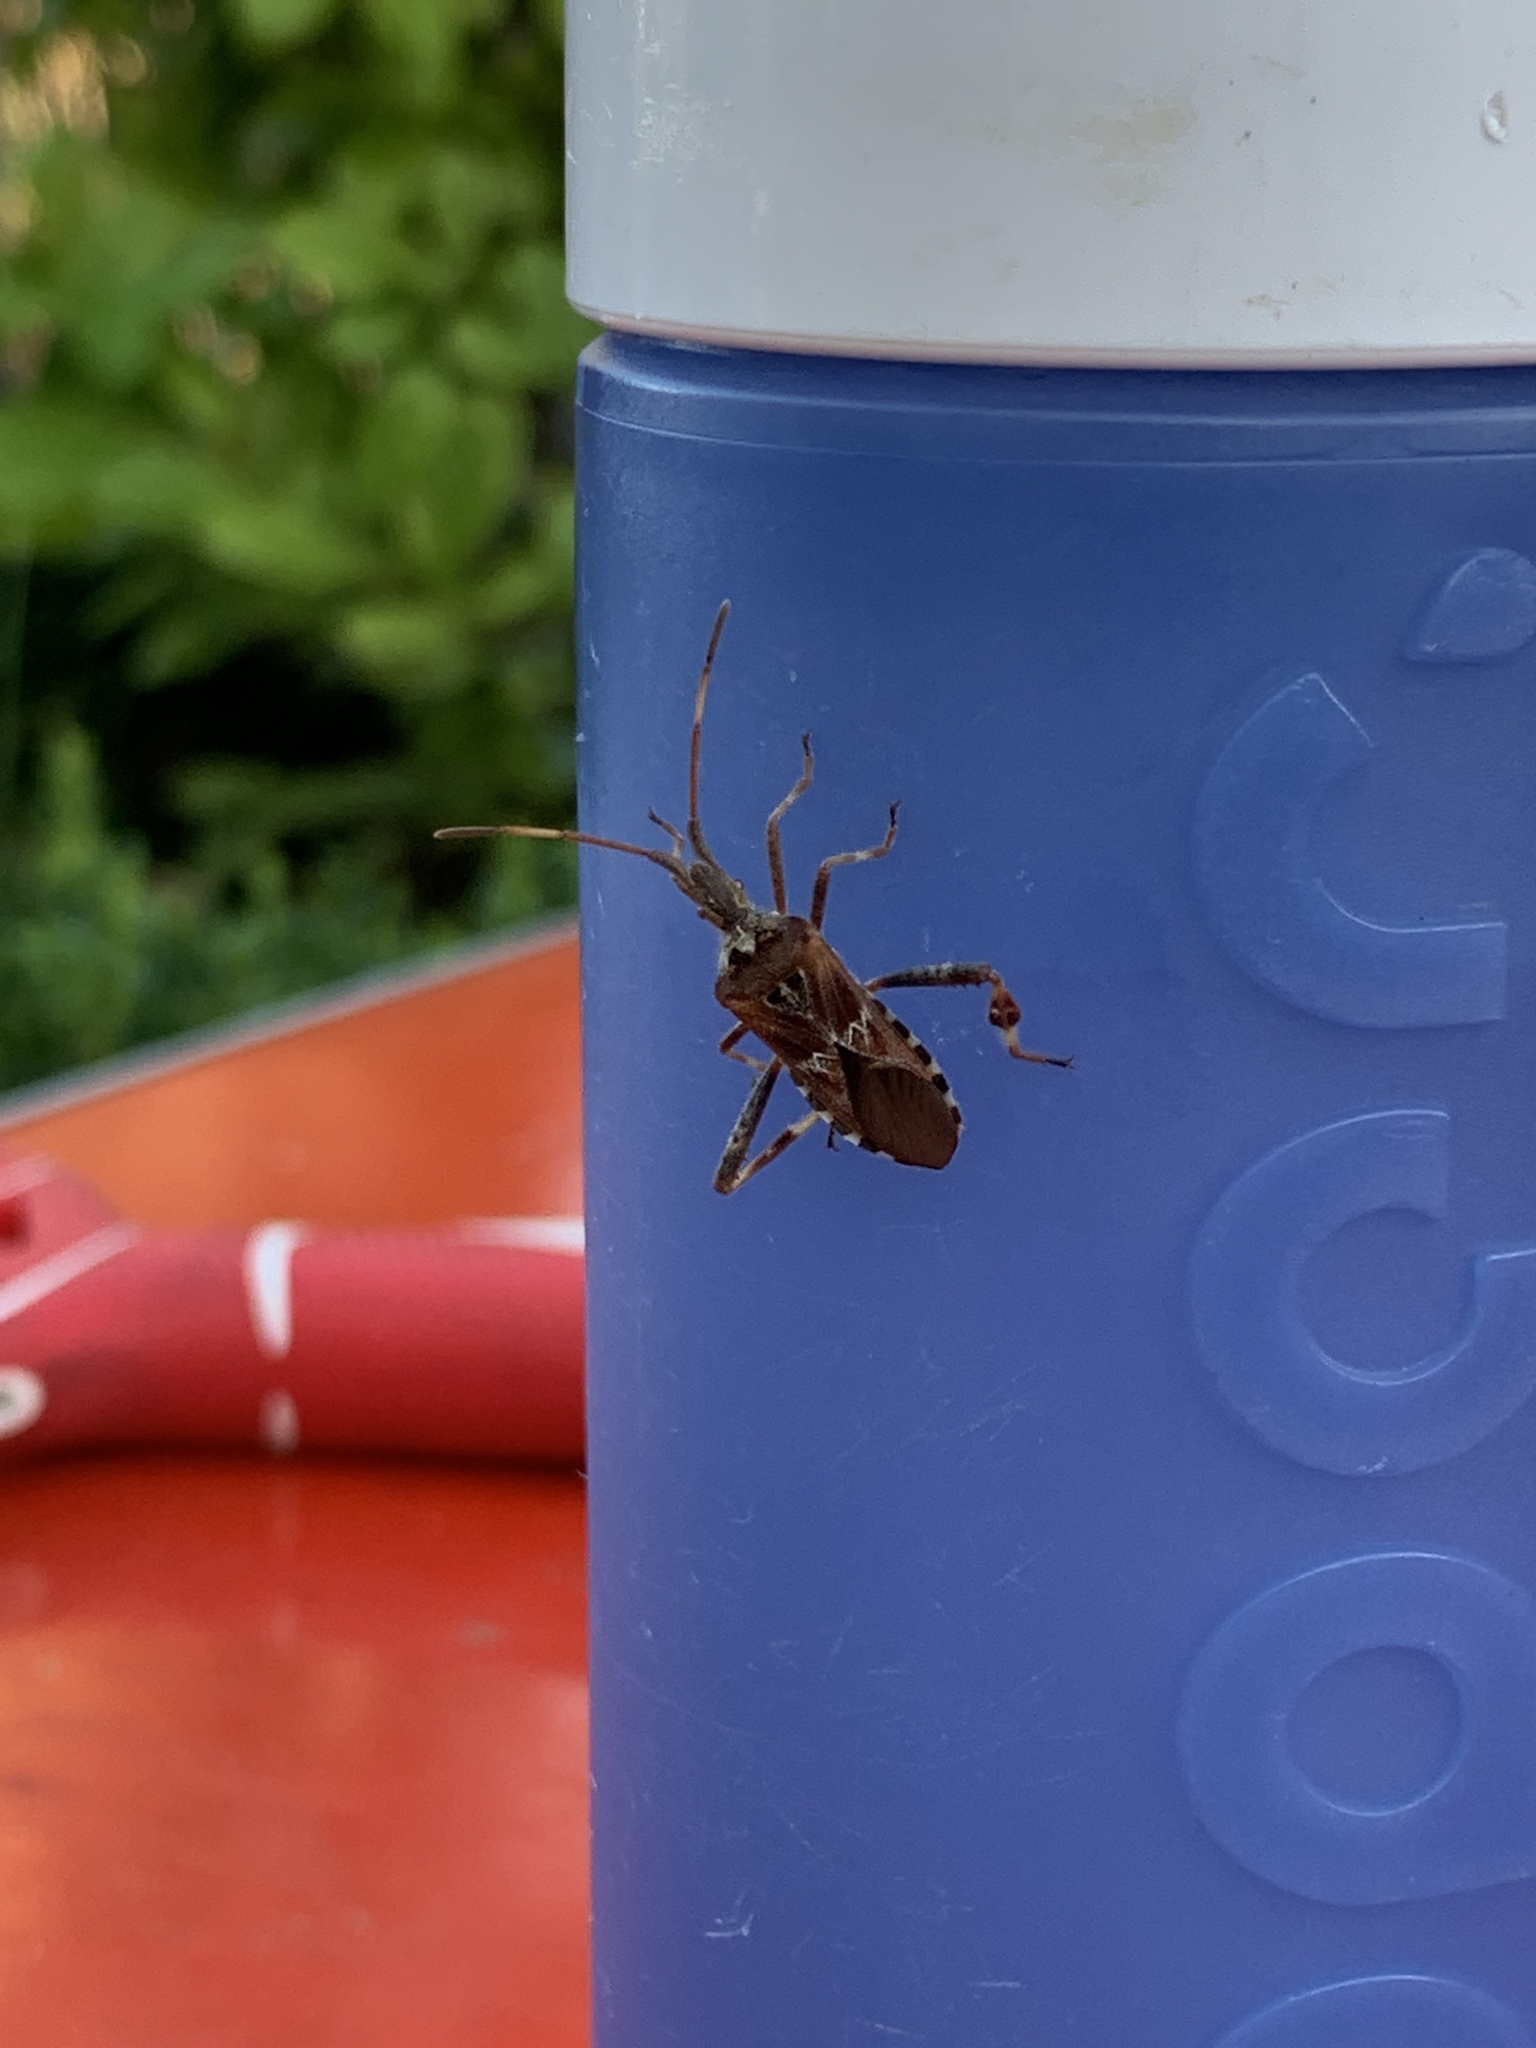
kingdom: Animalia
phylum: Arthropoda
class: Insecta
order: Hemiptera
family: Coreidae
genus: Leptoglossus
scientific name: Leptoglossus occidentalis
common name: Western conifer-seed bug
